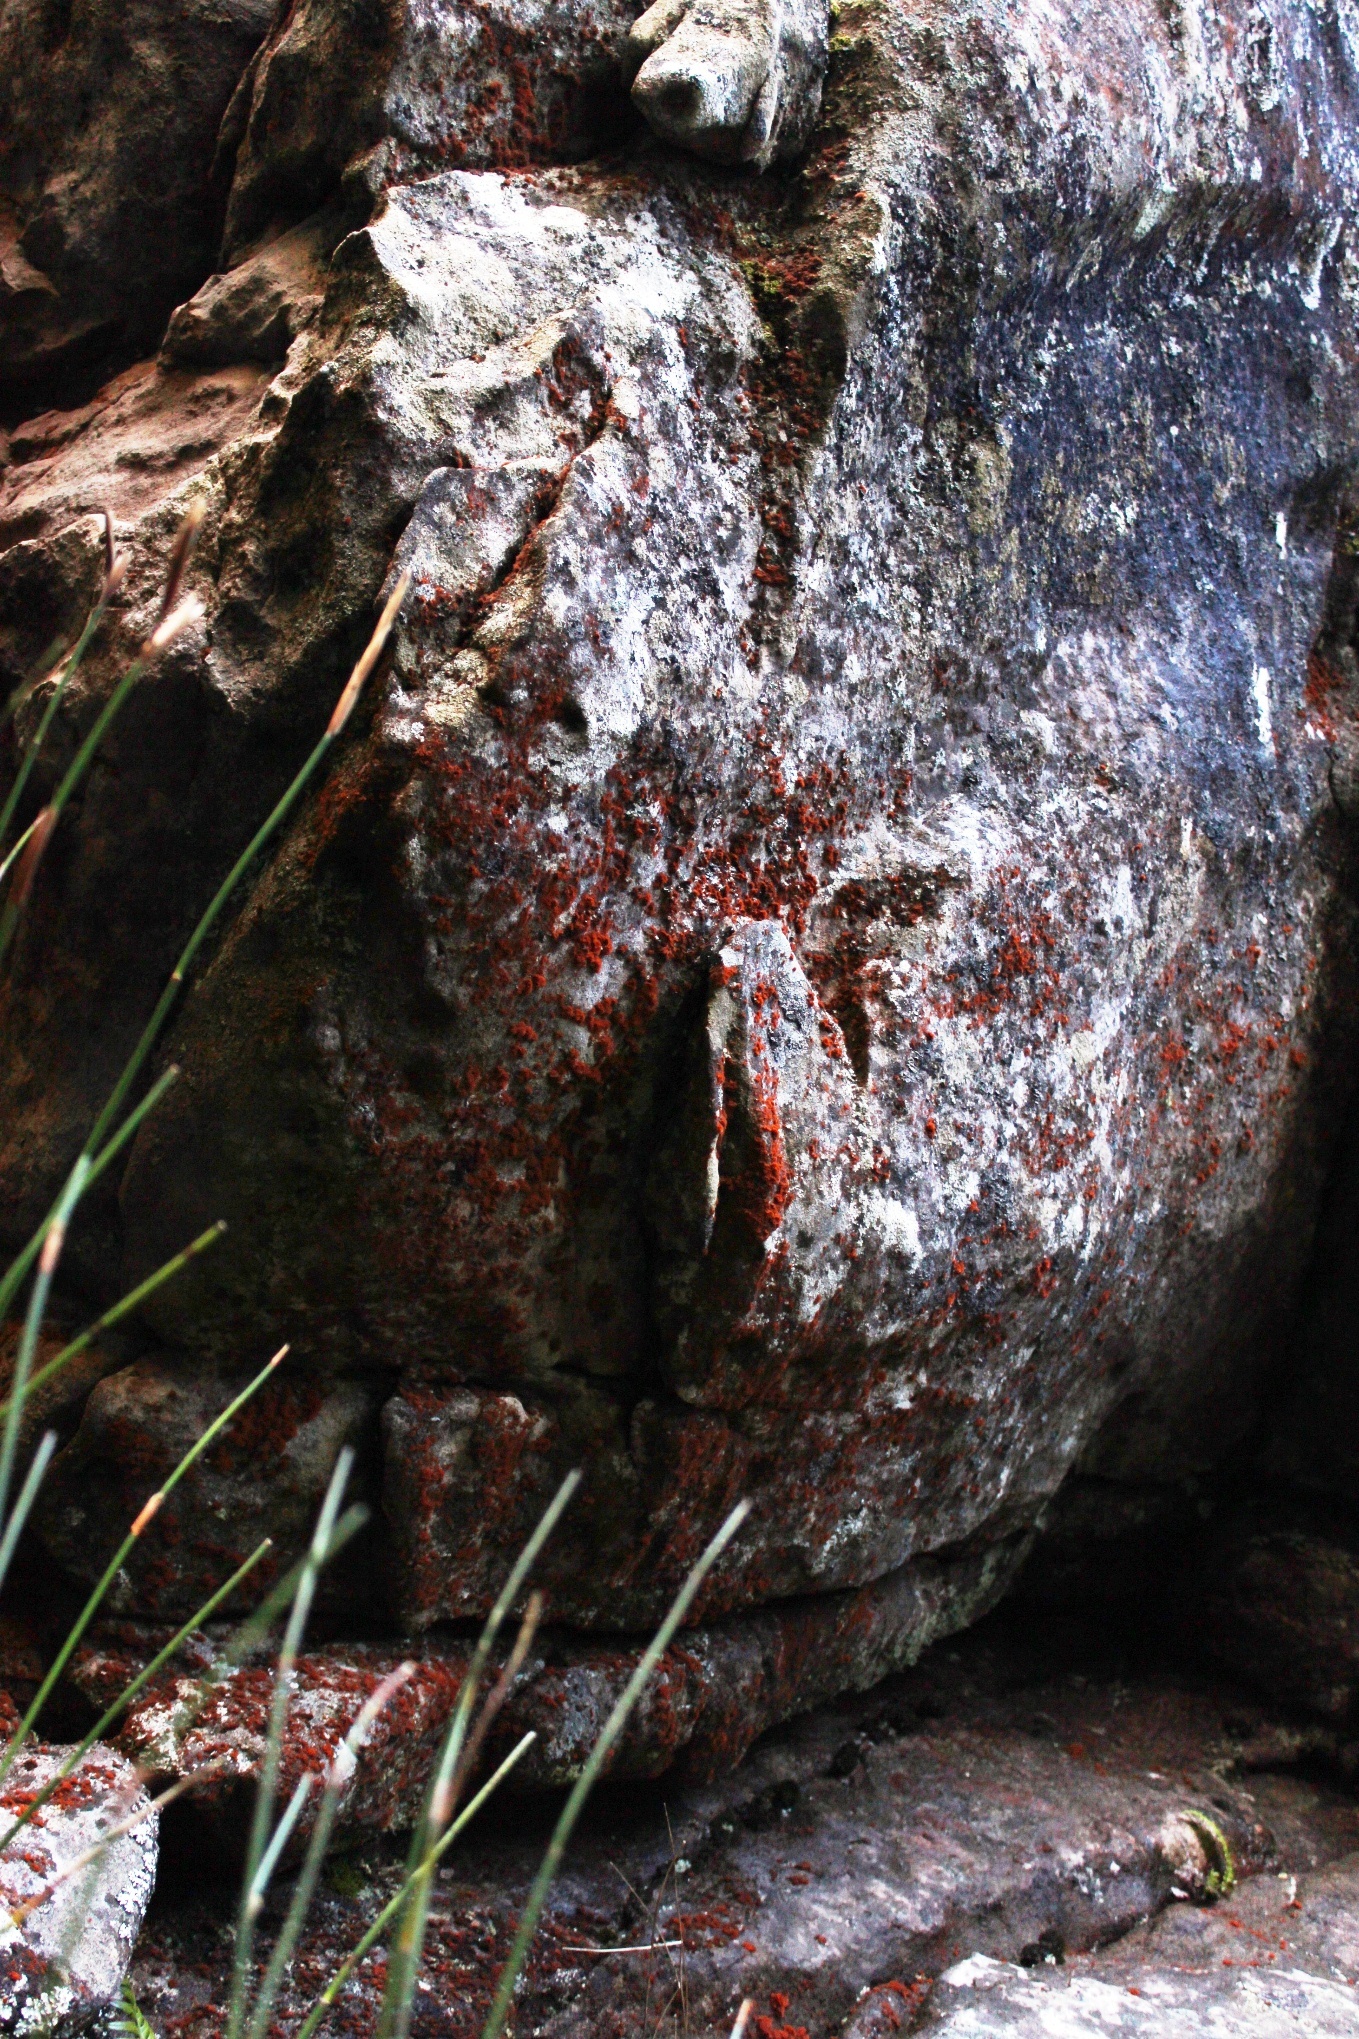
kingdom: Plantae
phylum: Chlorophyta
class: Ulvophyceae
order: Trentepohliales
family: Trentepohliaceae
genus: Trentepohlia
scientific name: Trentepohlia aurea
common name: Orange rock hair
